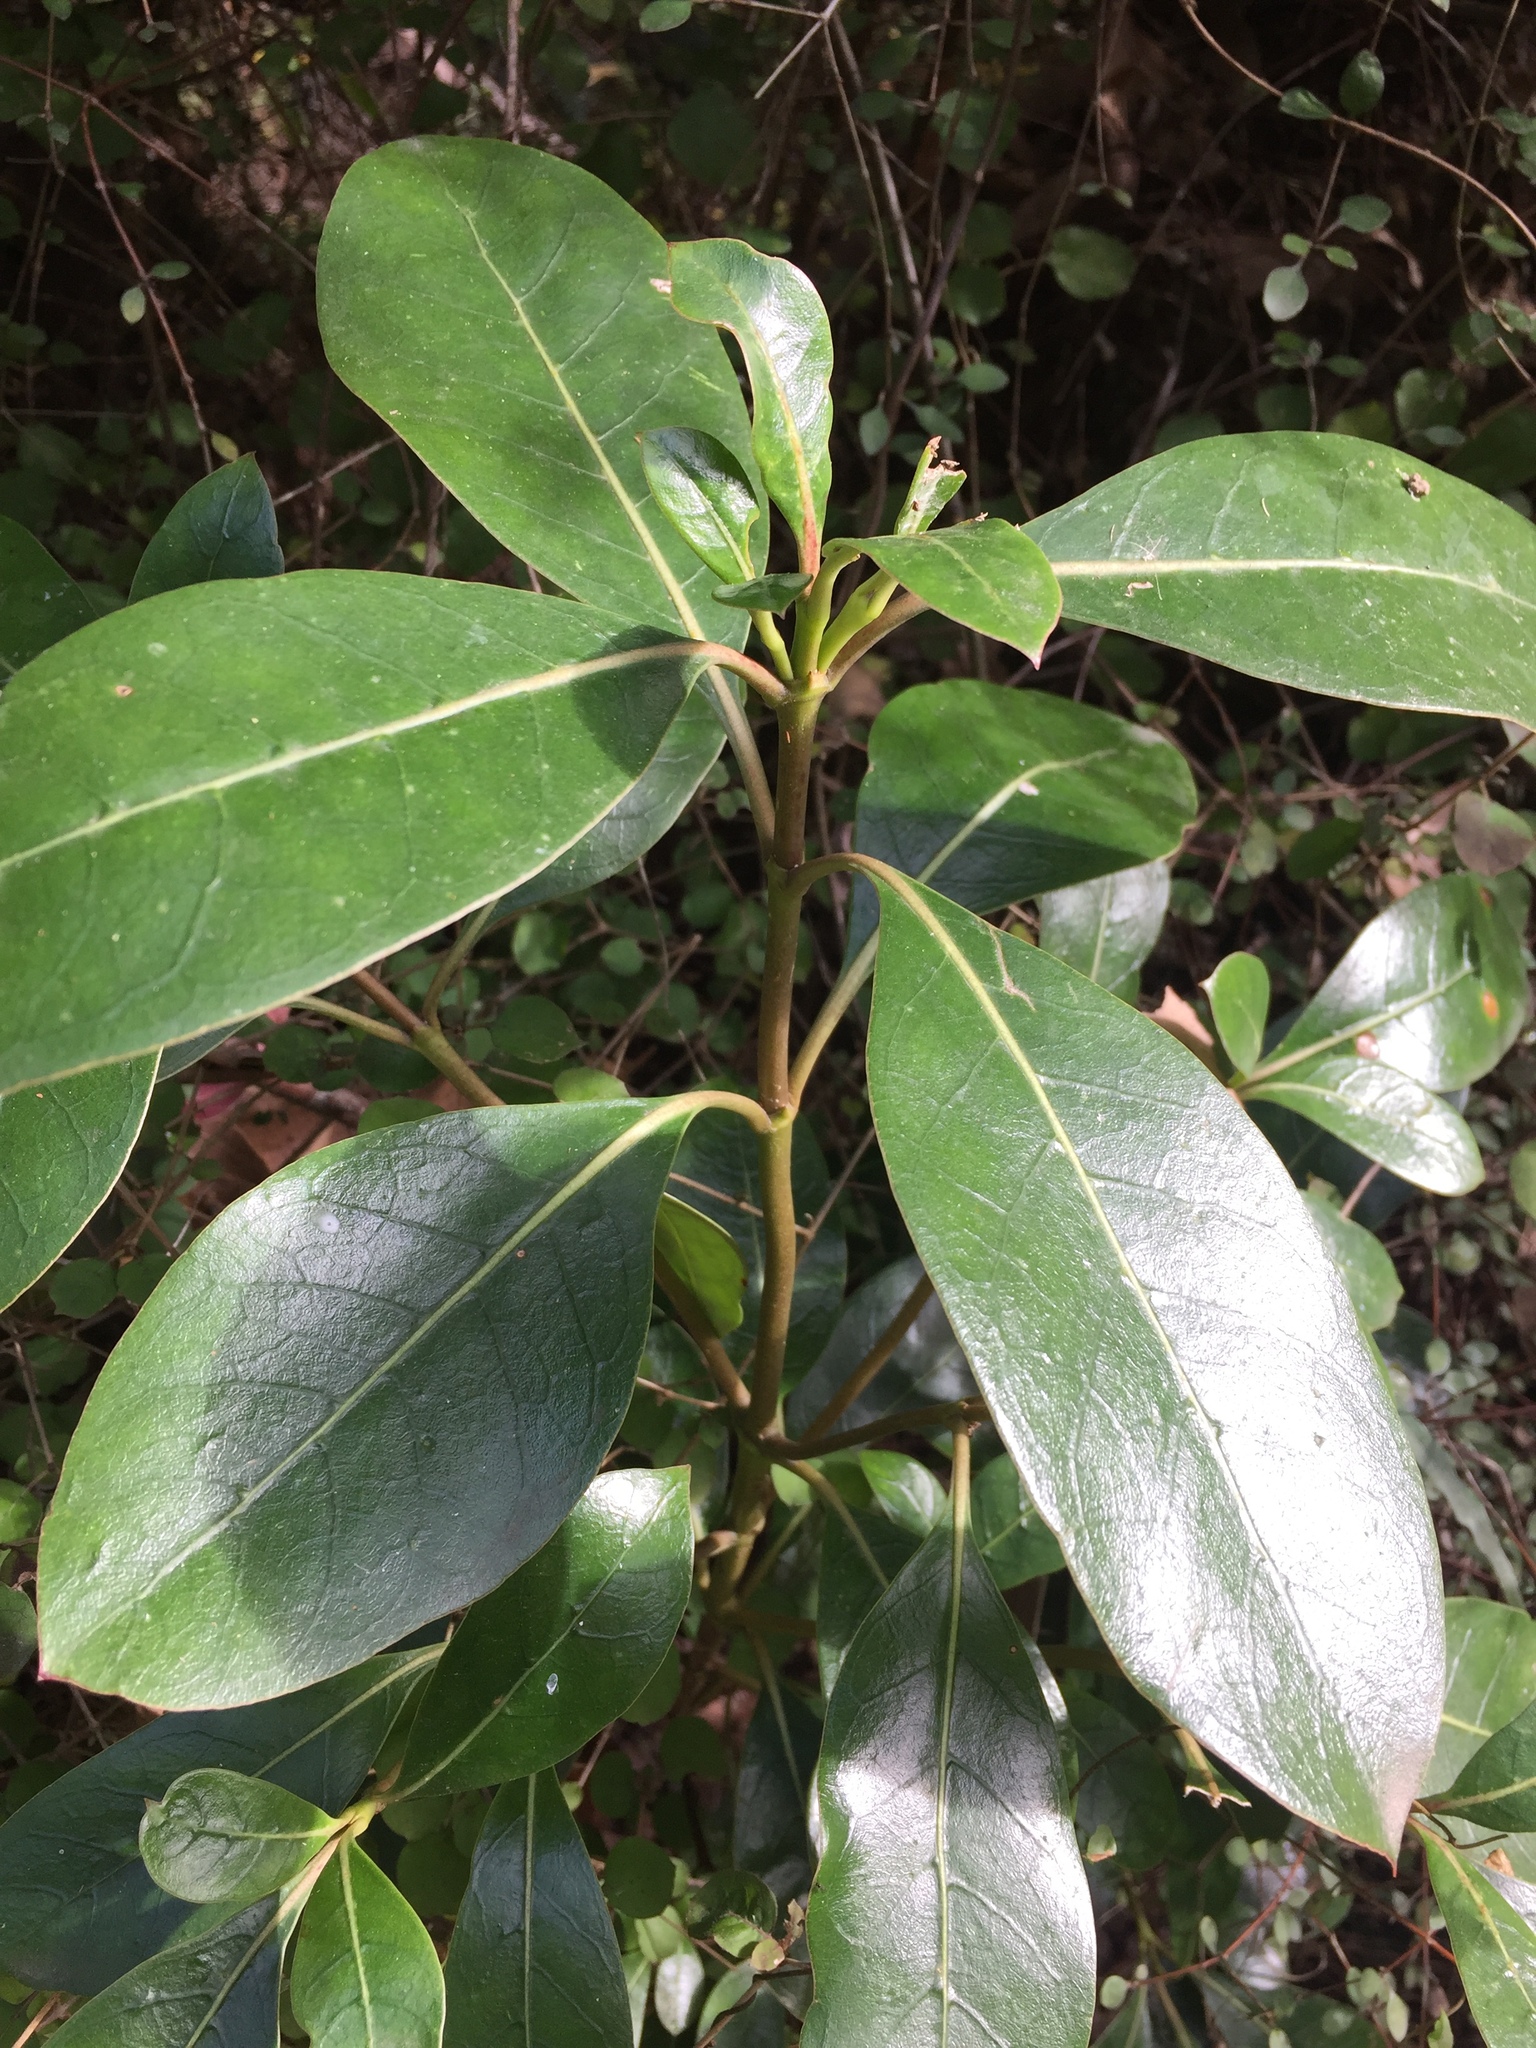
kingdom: Plantae
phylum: Tracheophyta
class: Magnoliopsida
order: Gentianales
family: Rubiaceae
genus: Coprosma
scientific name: Coprosma lucida
